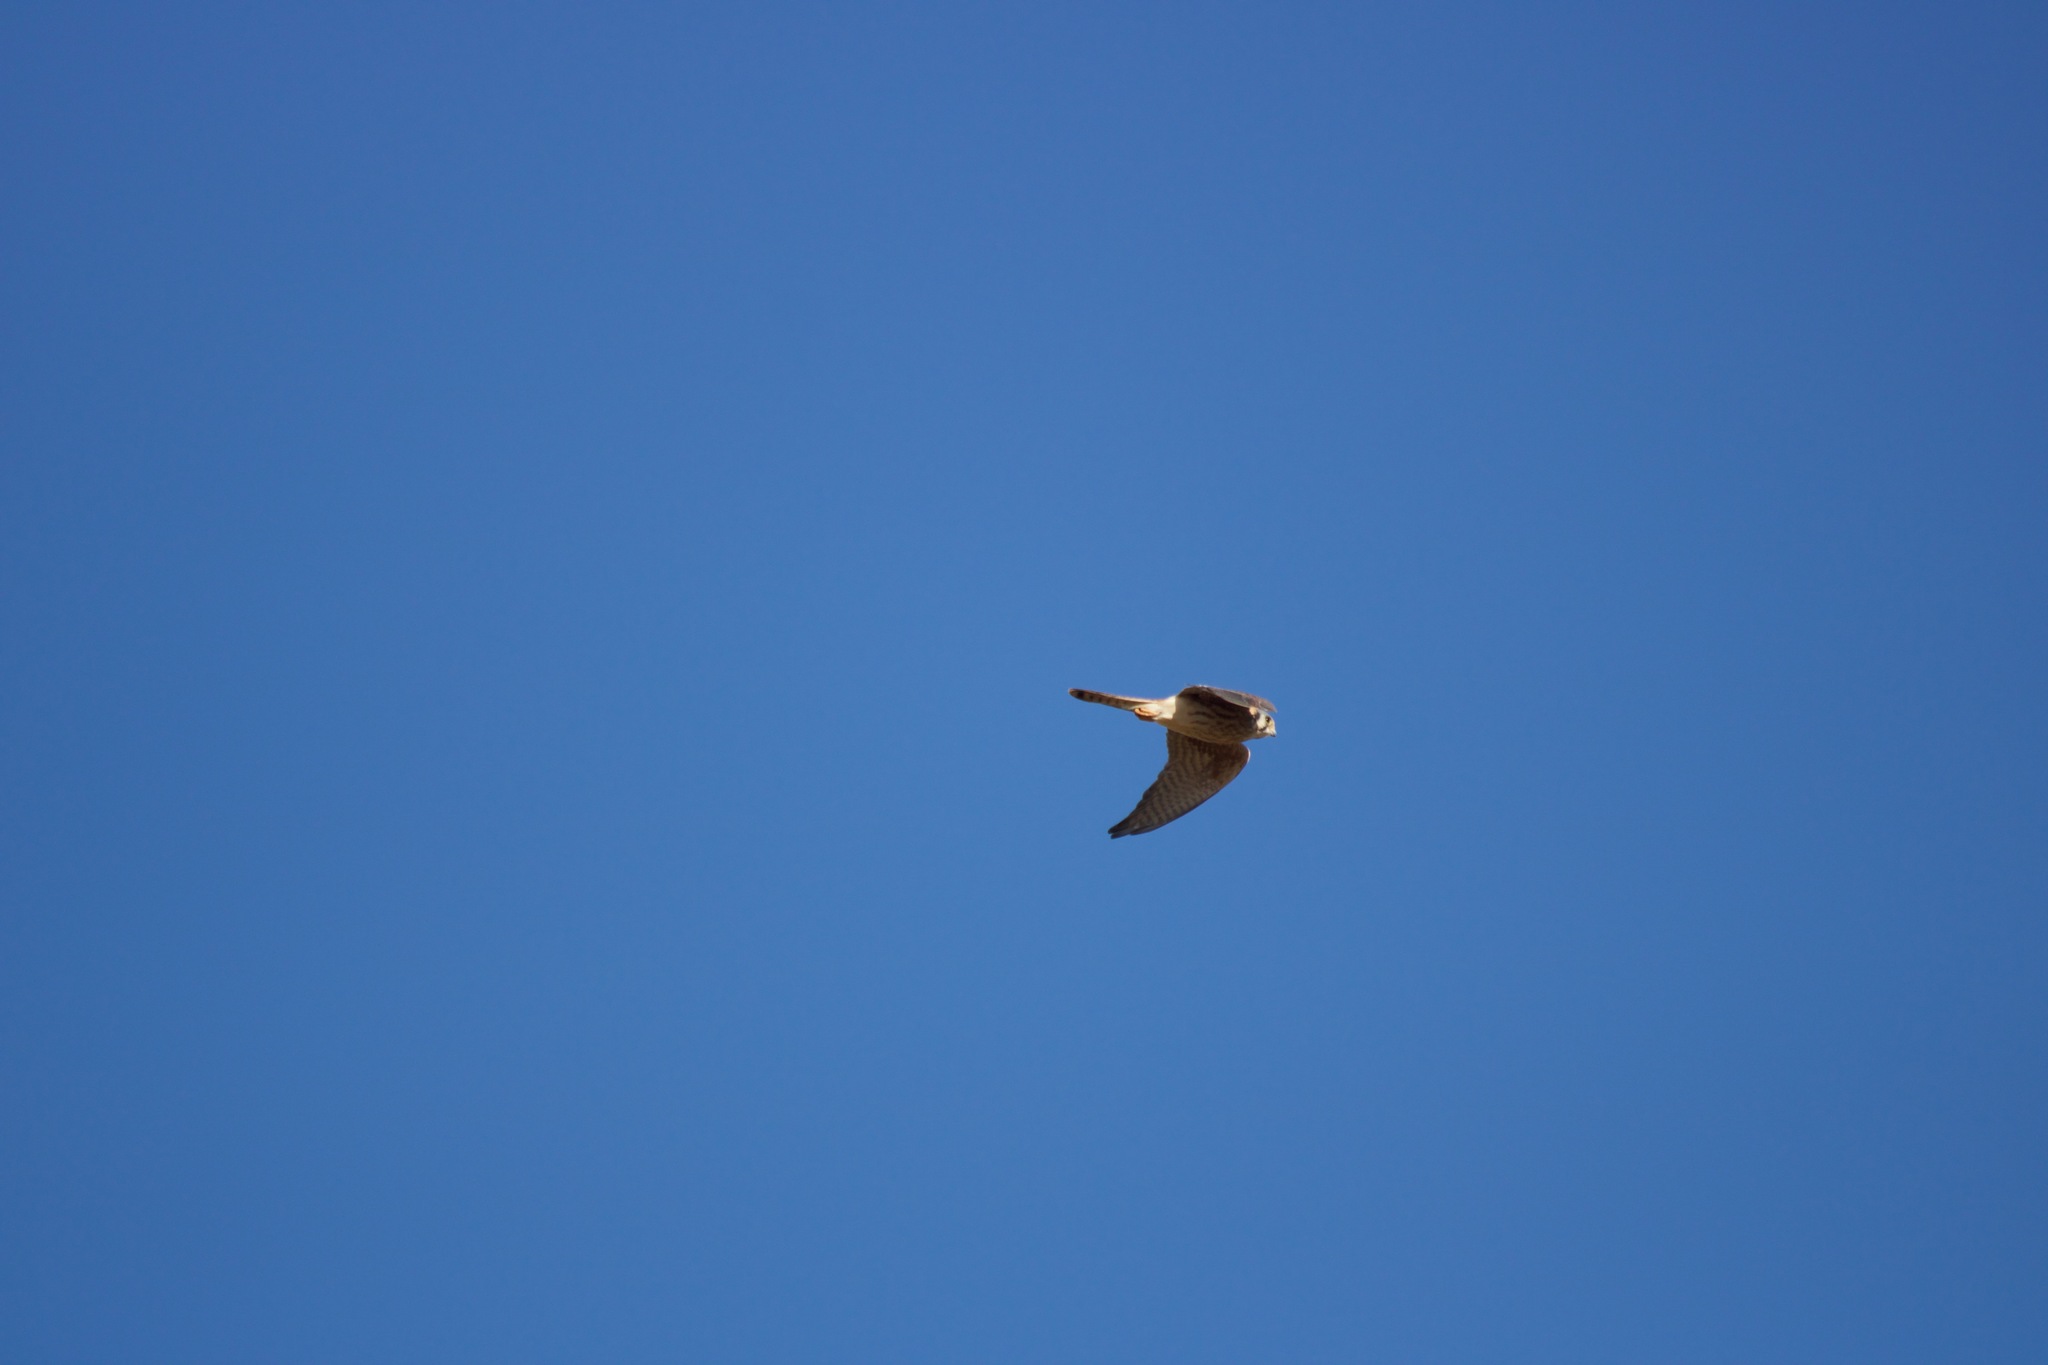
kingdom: Animalia
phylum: Chordata
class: Aves
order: Falconiformes
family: Falconidae
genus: Falco
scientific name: Falco sparverius
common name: American kestrel
